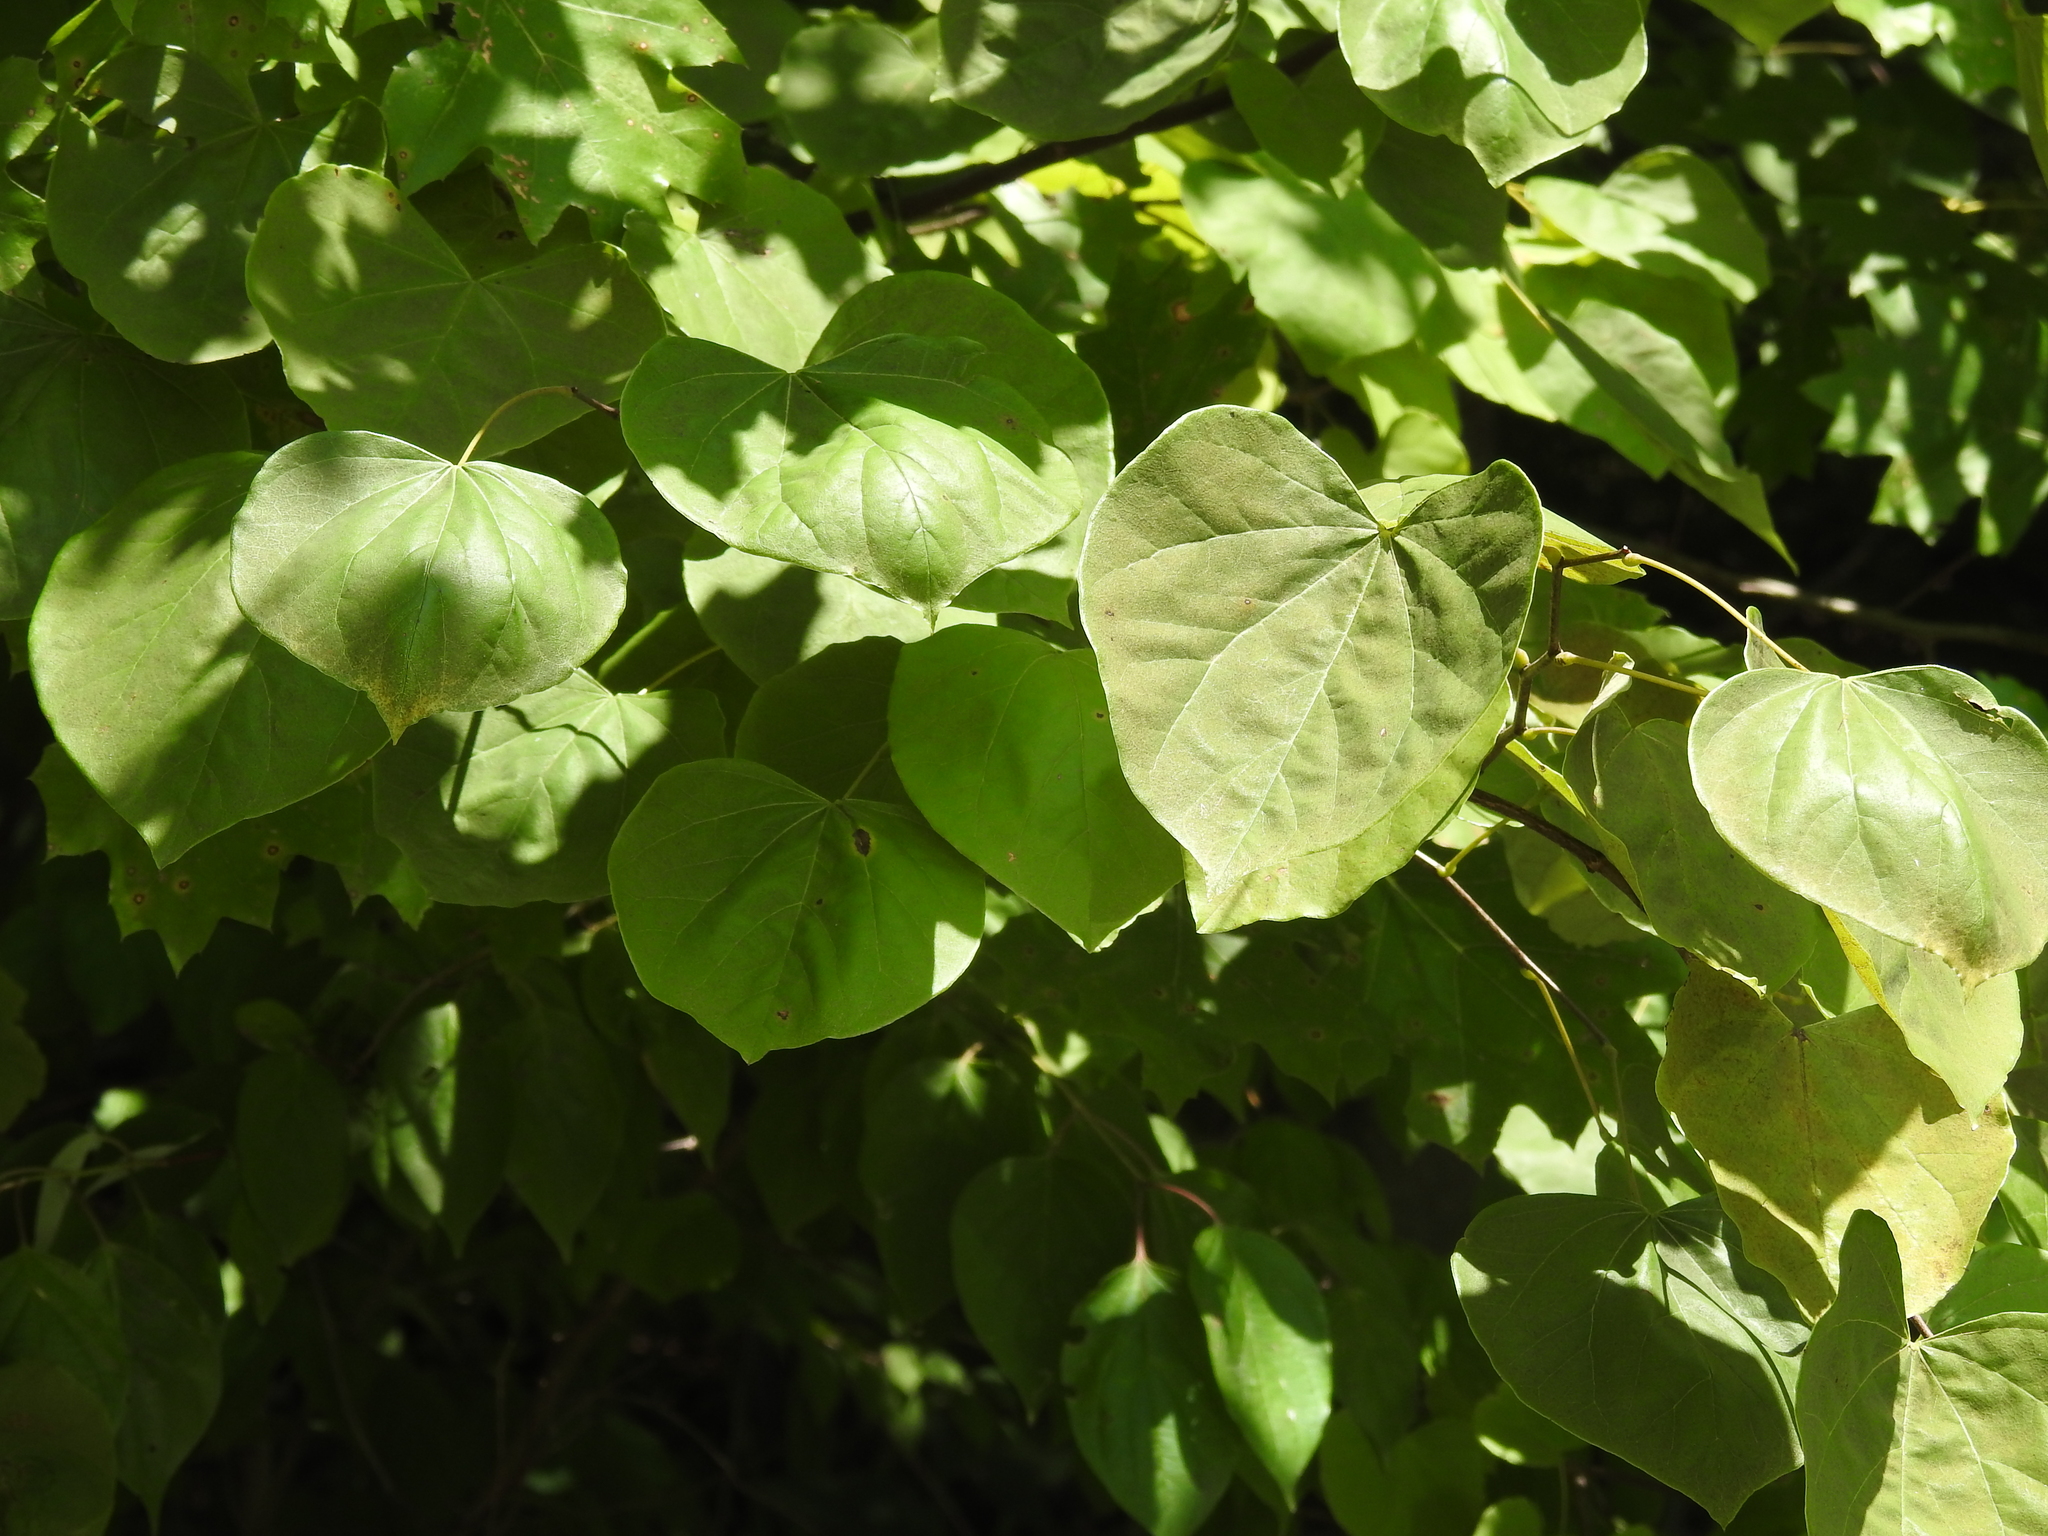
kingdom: Plantae
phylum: Tracheophyta
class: Magnoliopsida
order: Fabales
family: Fabaceae
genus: Cercis
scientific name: Cercis canadensis
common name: Eastern redbud
